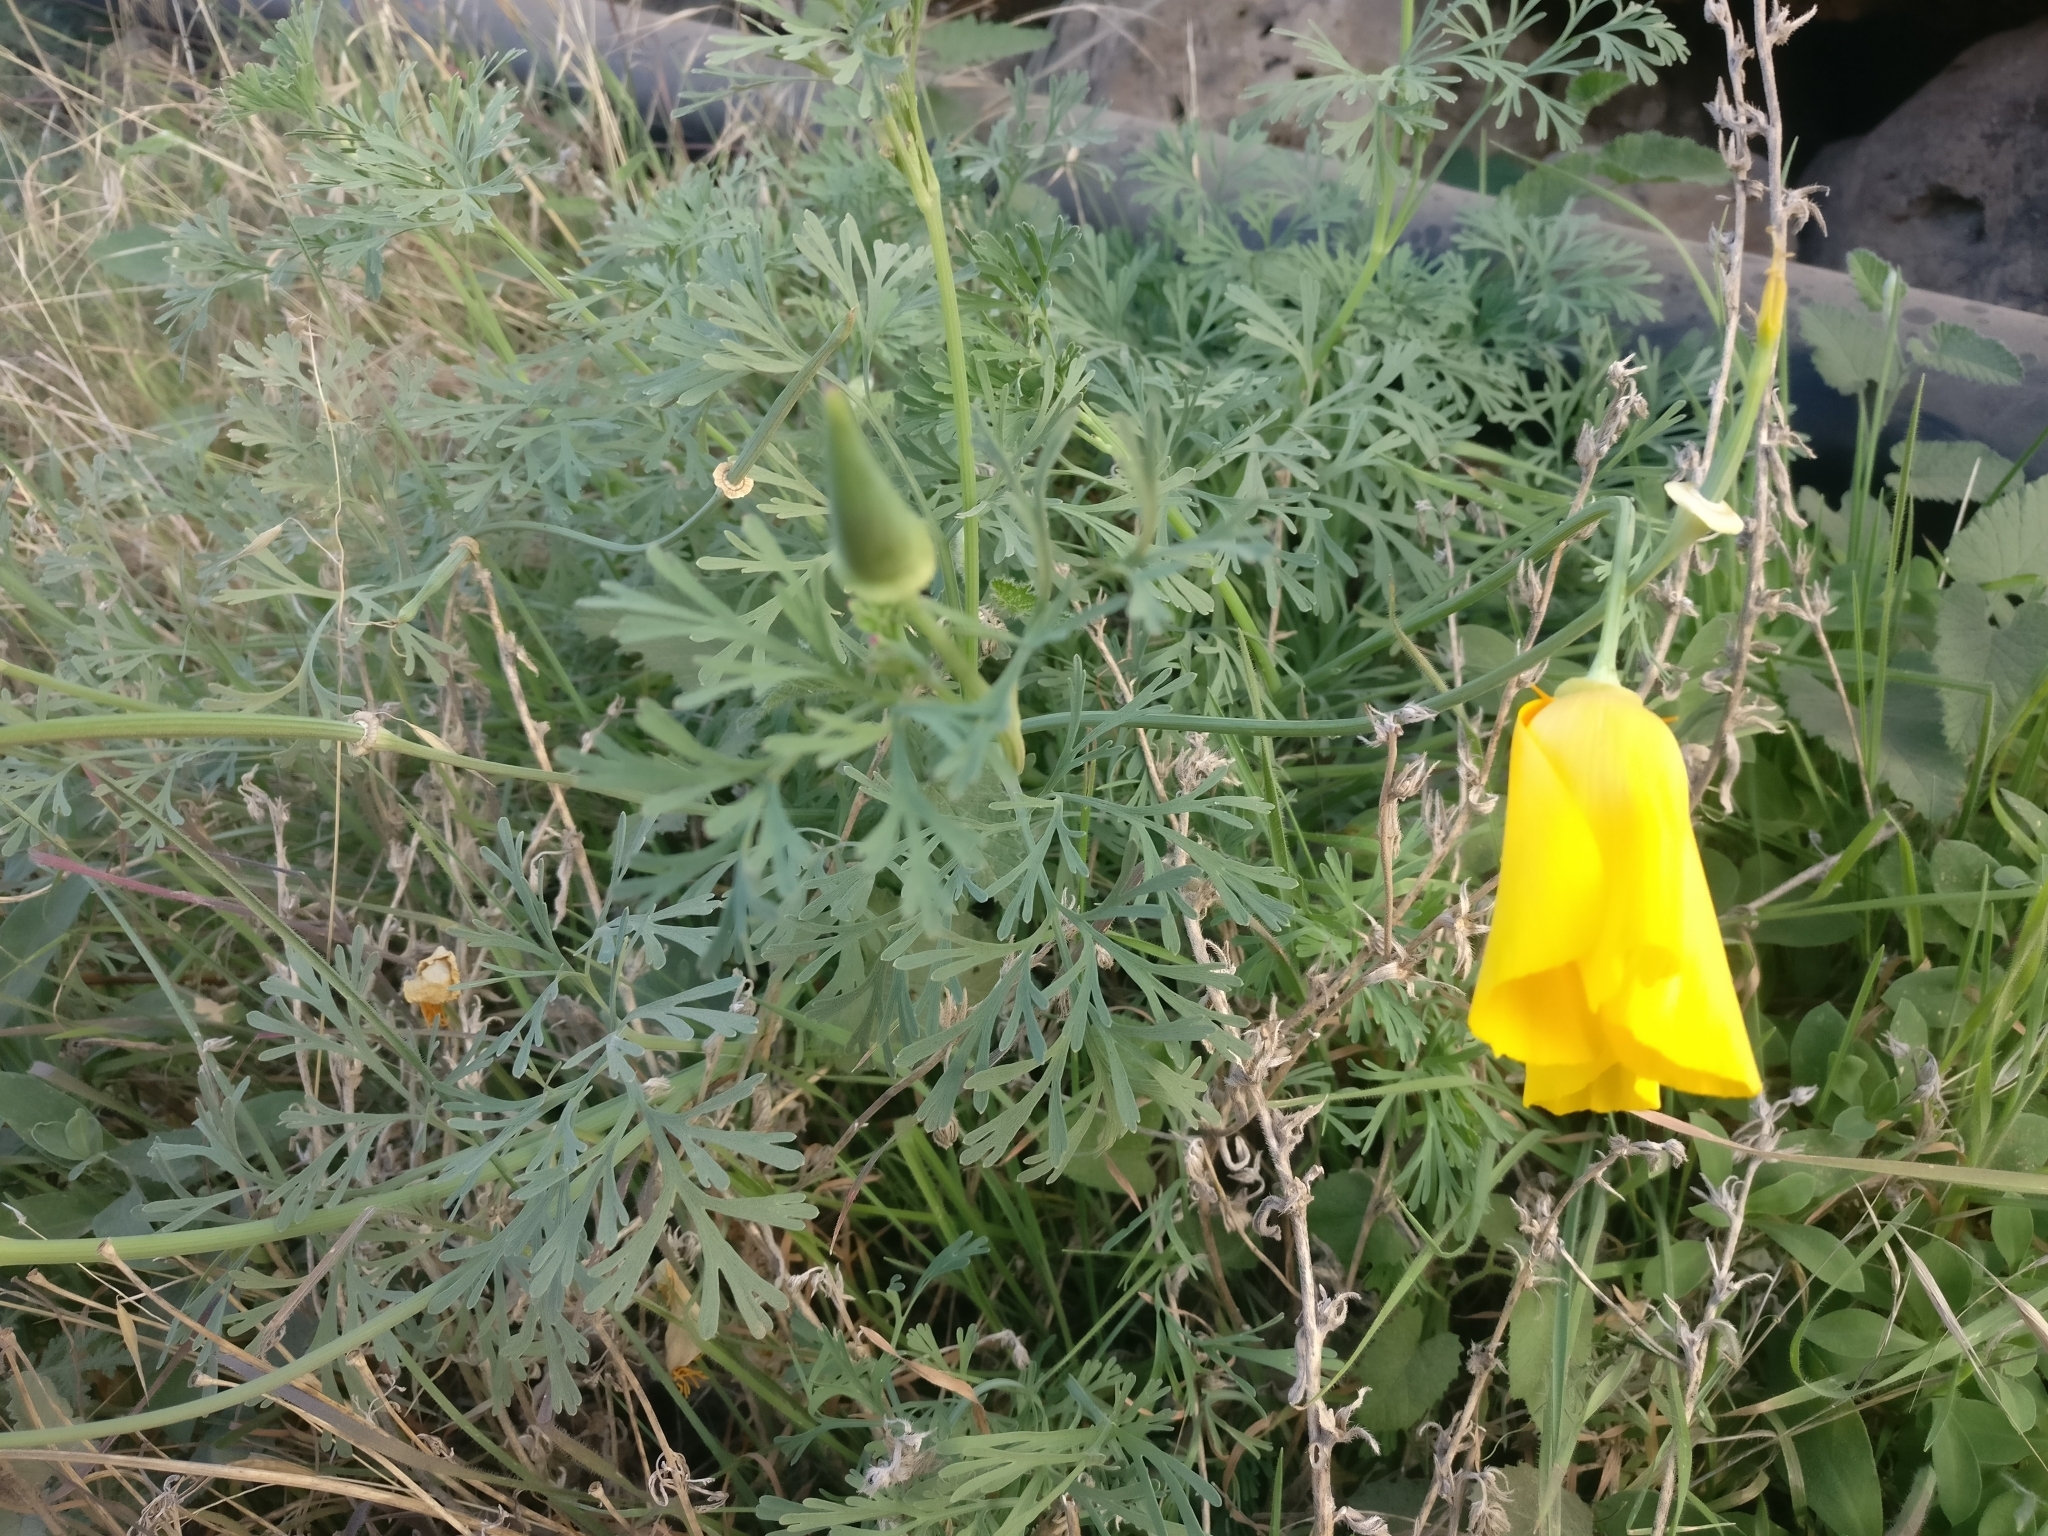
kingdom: Plantae
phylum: Tracheophyta
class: Magnoliopsida
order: Ranunculales
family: Papaveraceae
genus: Eschscholzia
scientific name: Eschscholzia californica
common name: California poppy
